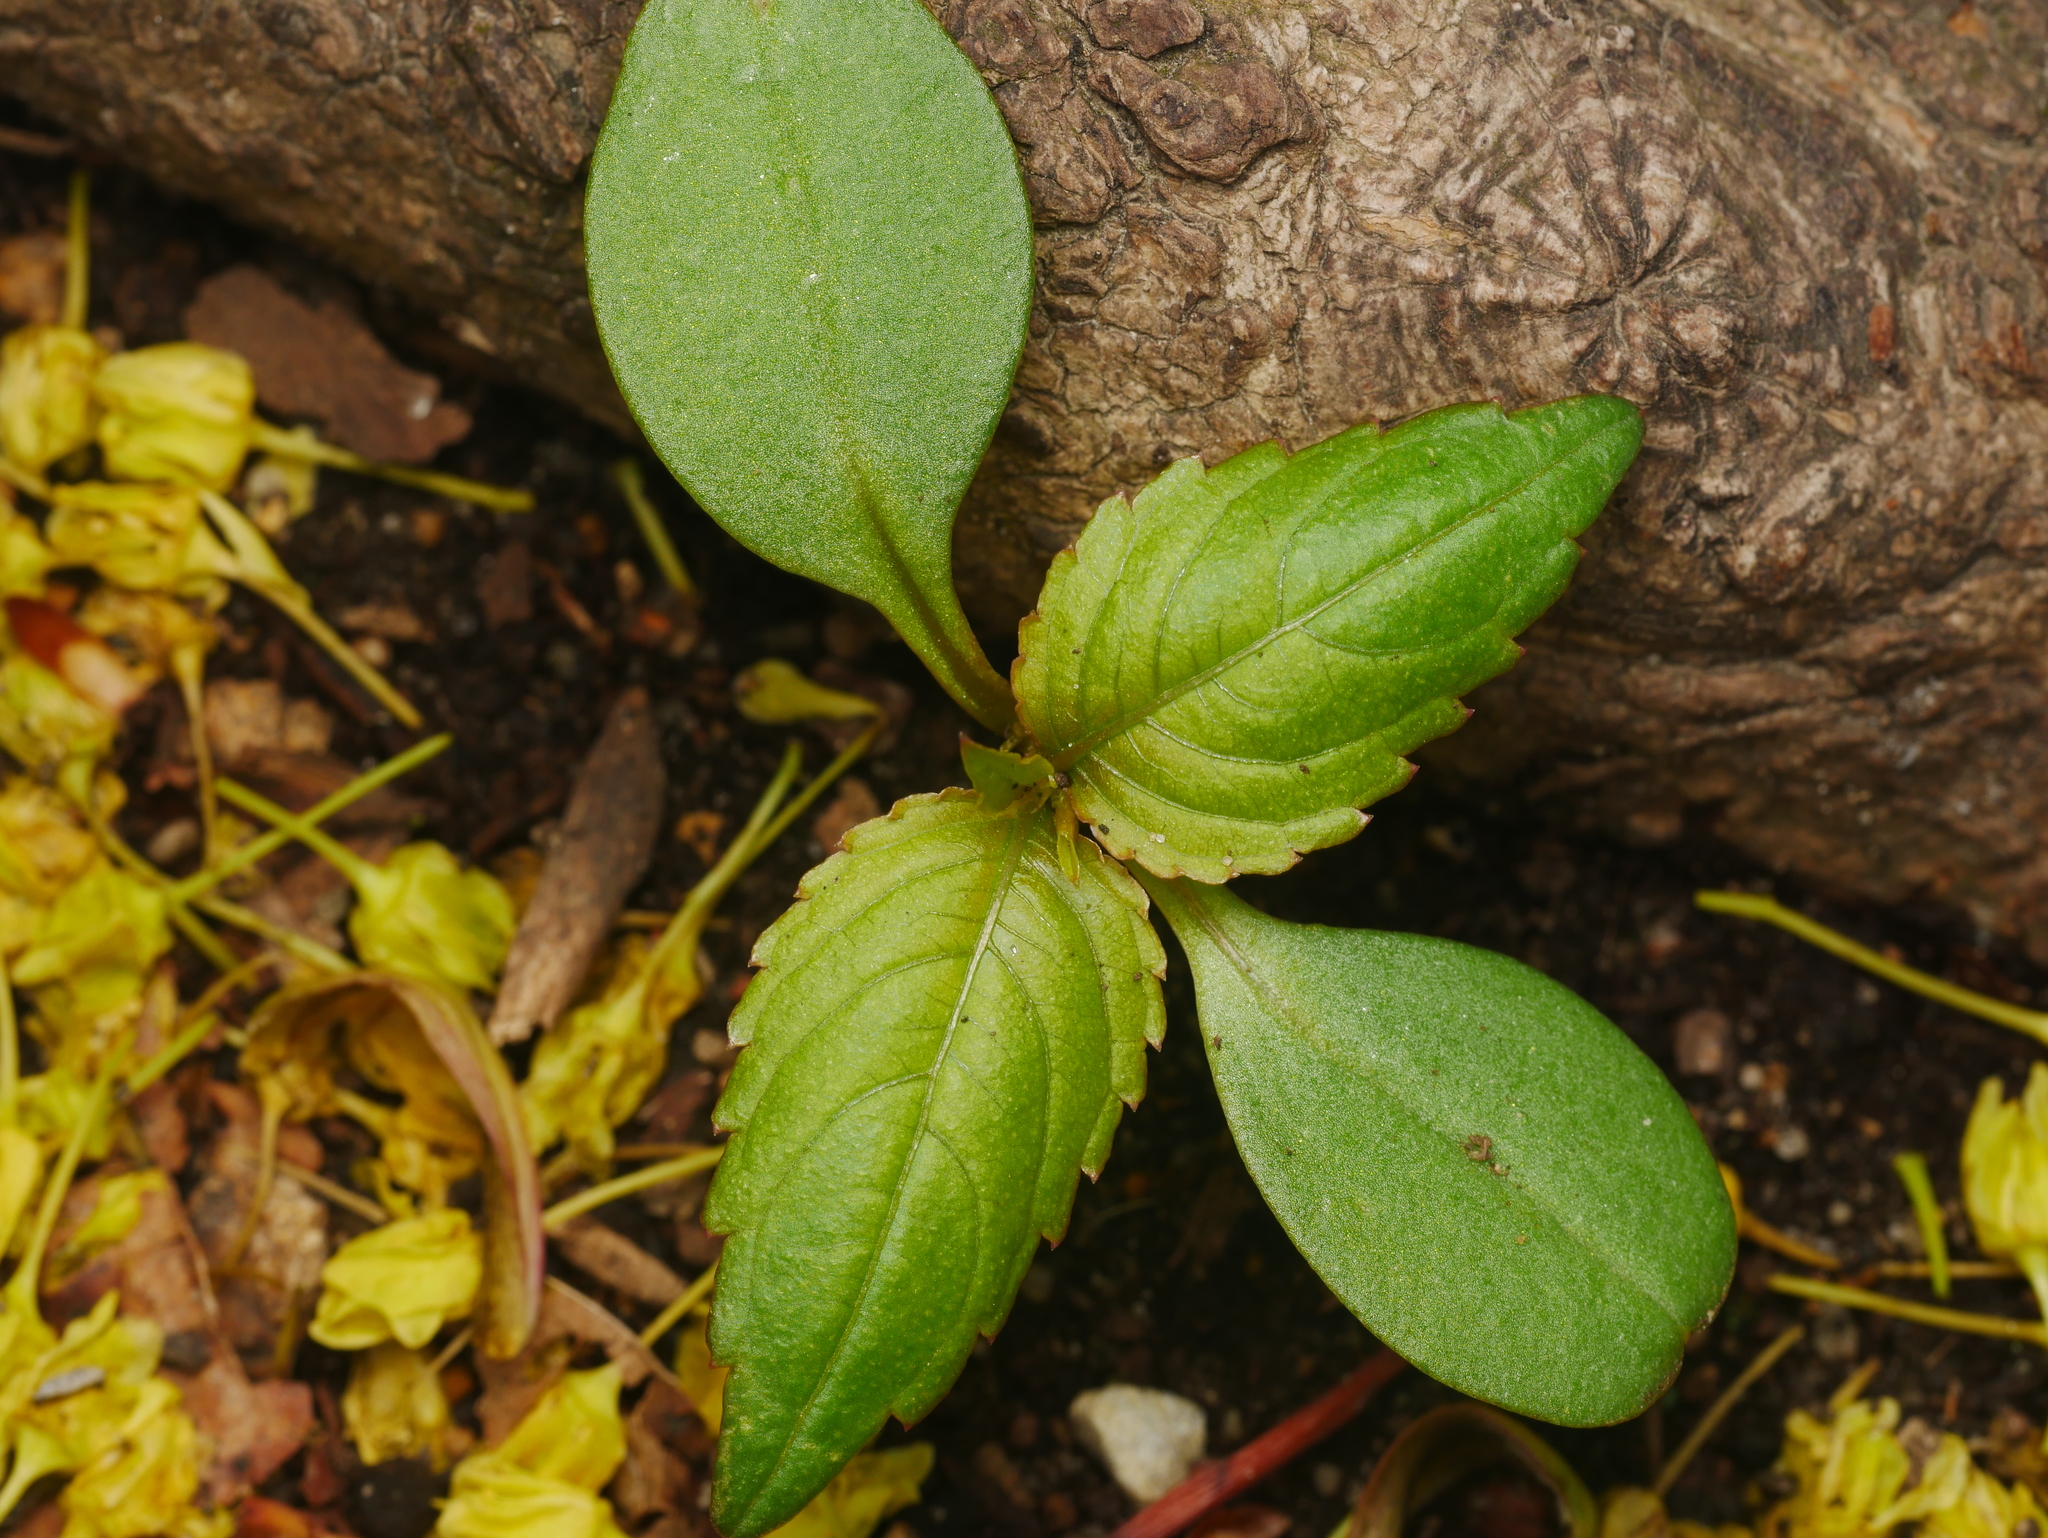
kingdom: Plantae
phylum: Tracheophyta
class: Magnoliopsida
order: Ericales
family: Balsaminaceae
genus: Impatiens
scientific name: Impatiens parviflora
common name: Small balsam
